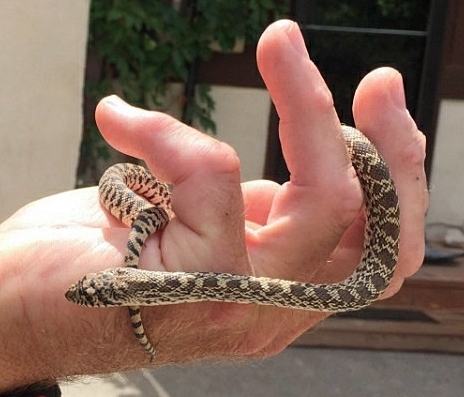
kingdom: Animalia
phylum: Chordata
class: Squamata
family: Colubridae
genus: Pituophis
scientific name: Pituophis catenifer
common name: Gopher snake
